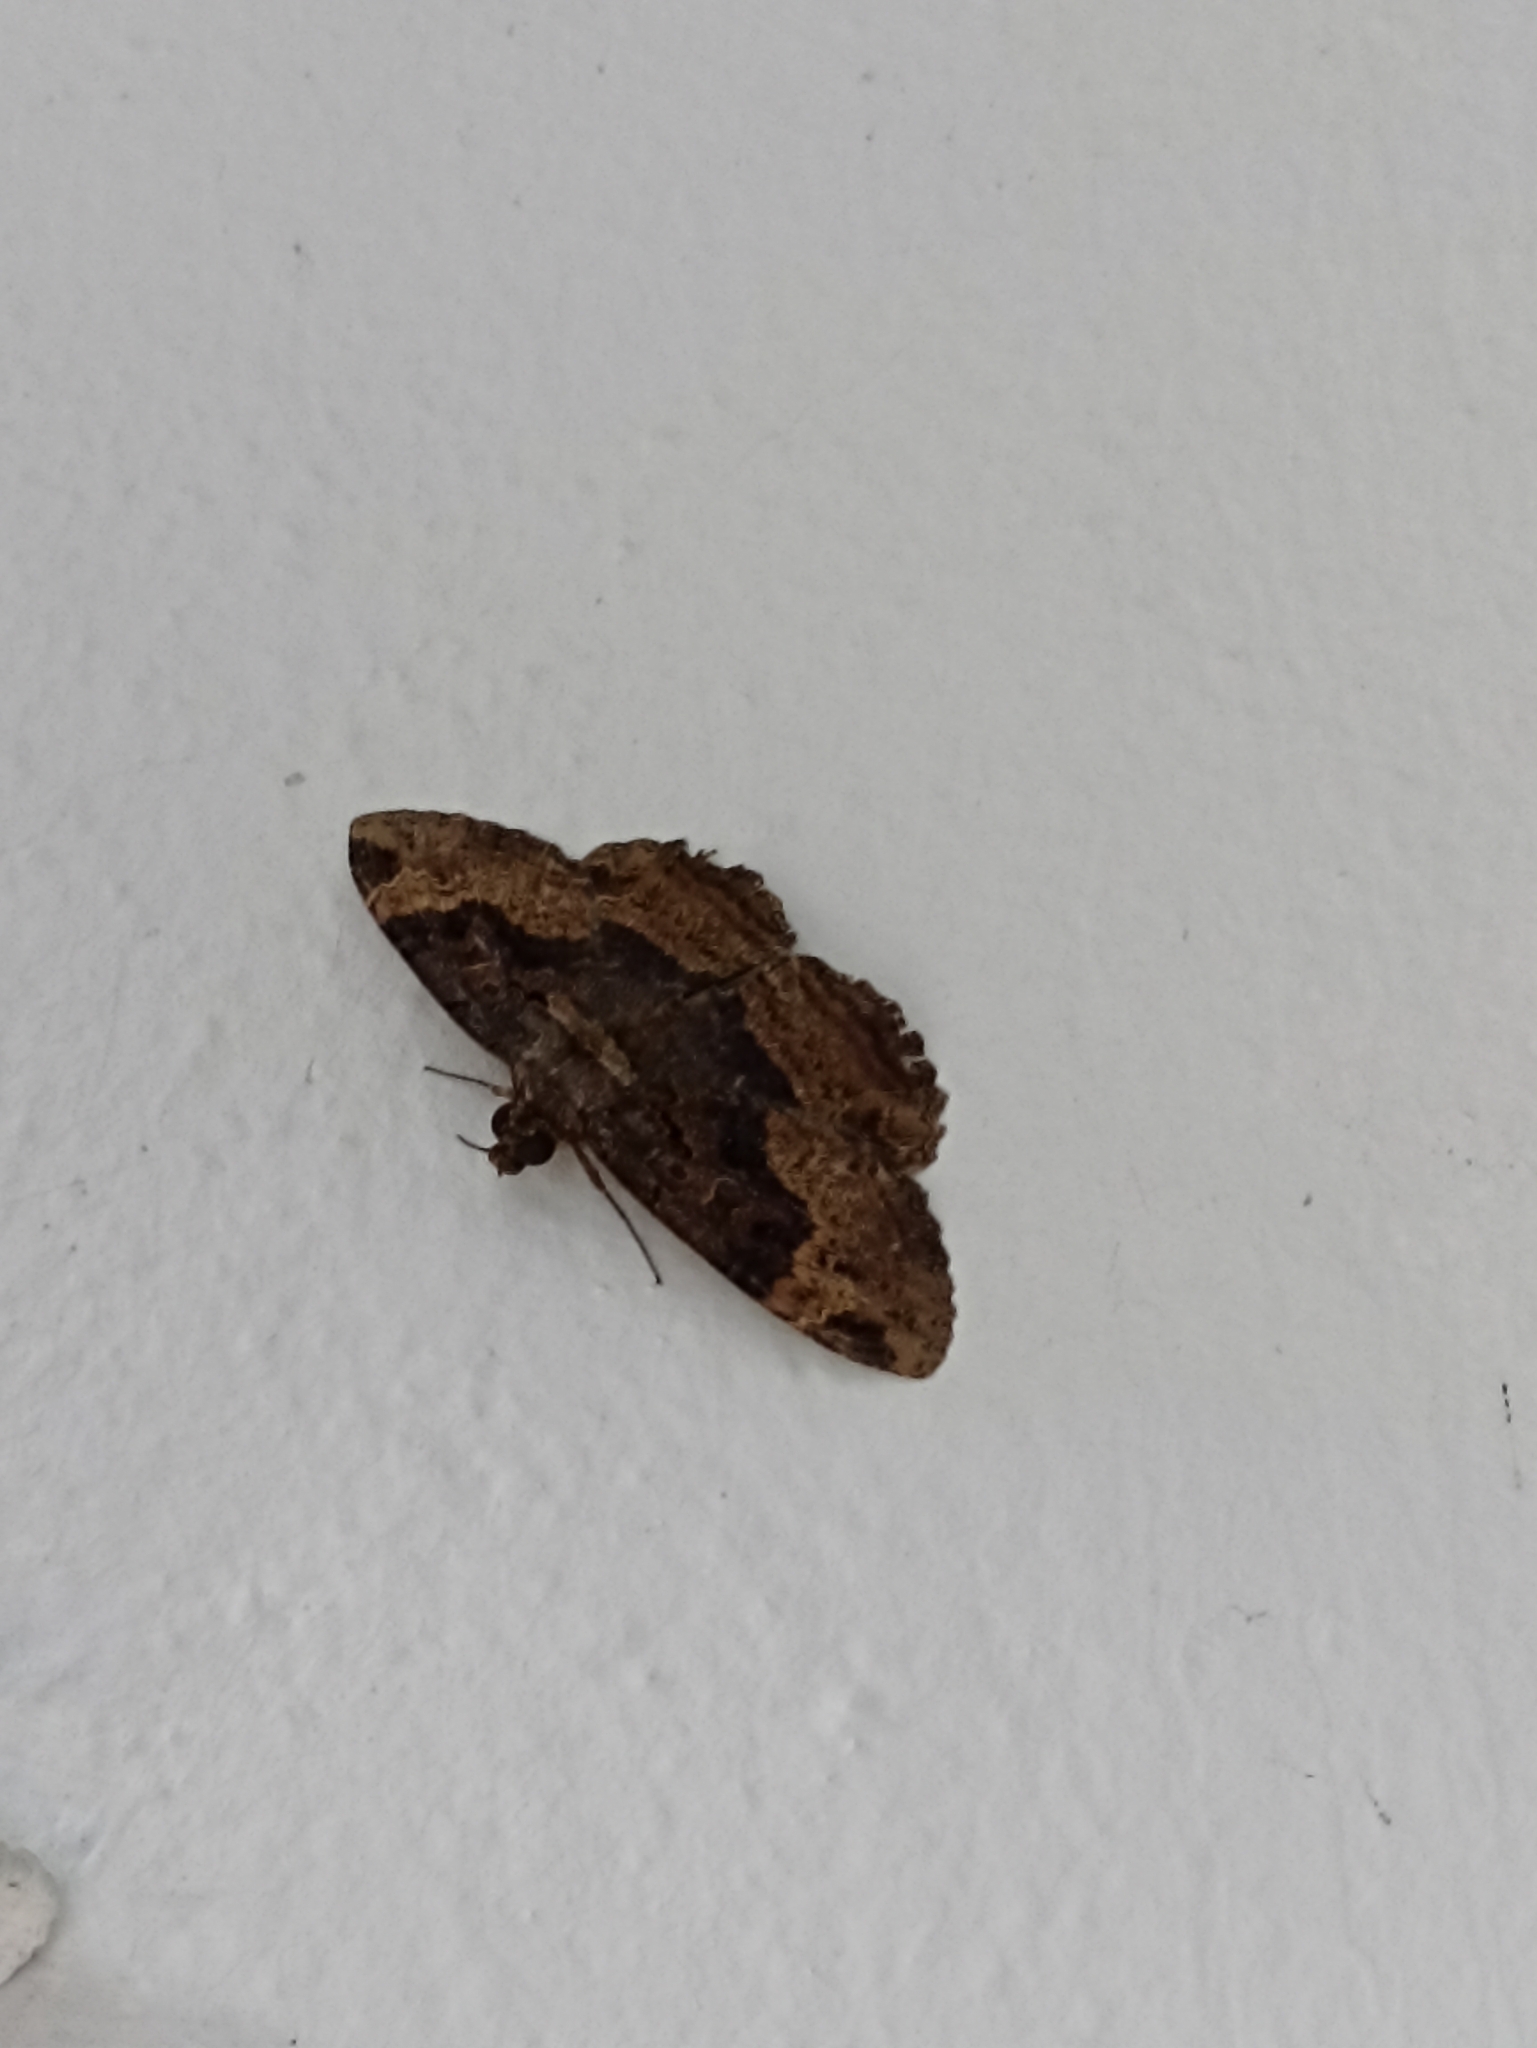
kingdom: Animalia
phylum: Arthropoda
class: Insecta
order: Lepidoptera
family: Erebidae
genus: Ramphia
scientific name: Ramphia albizona
